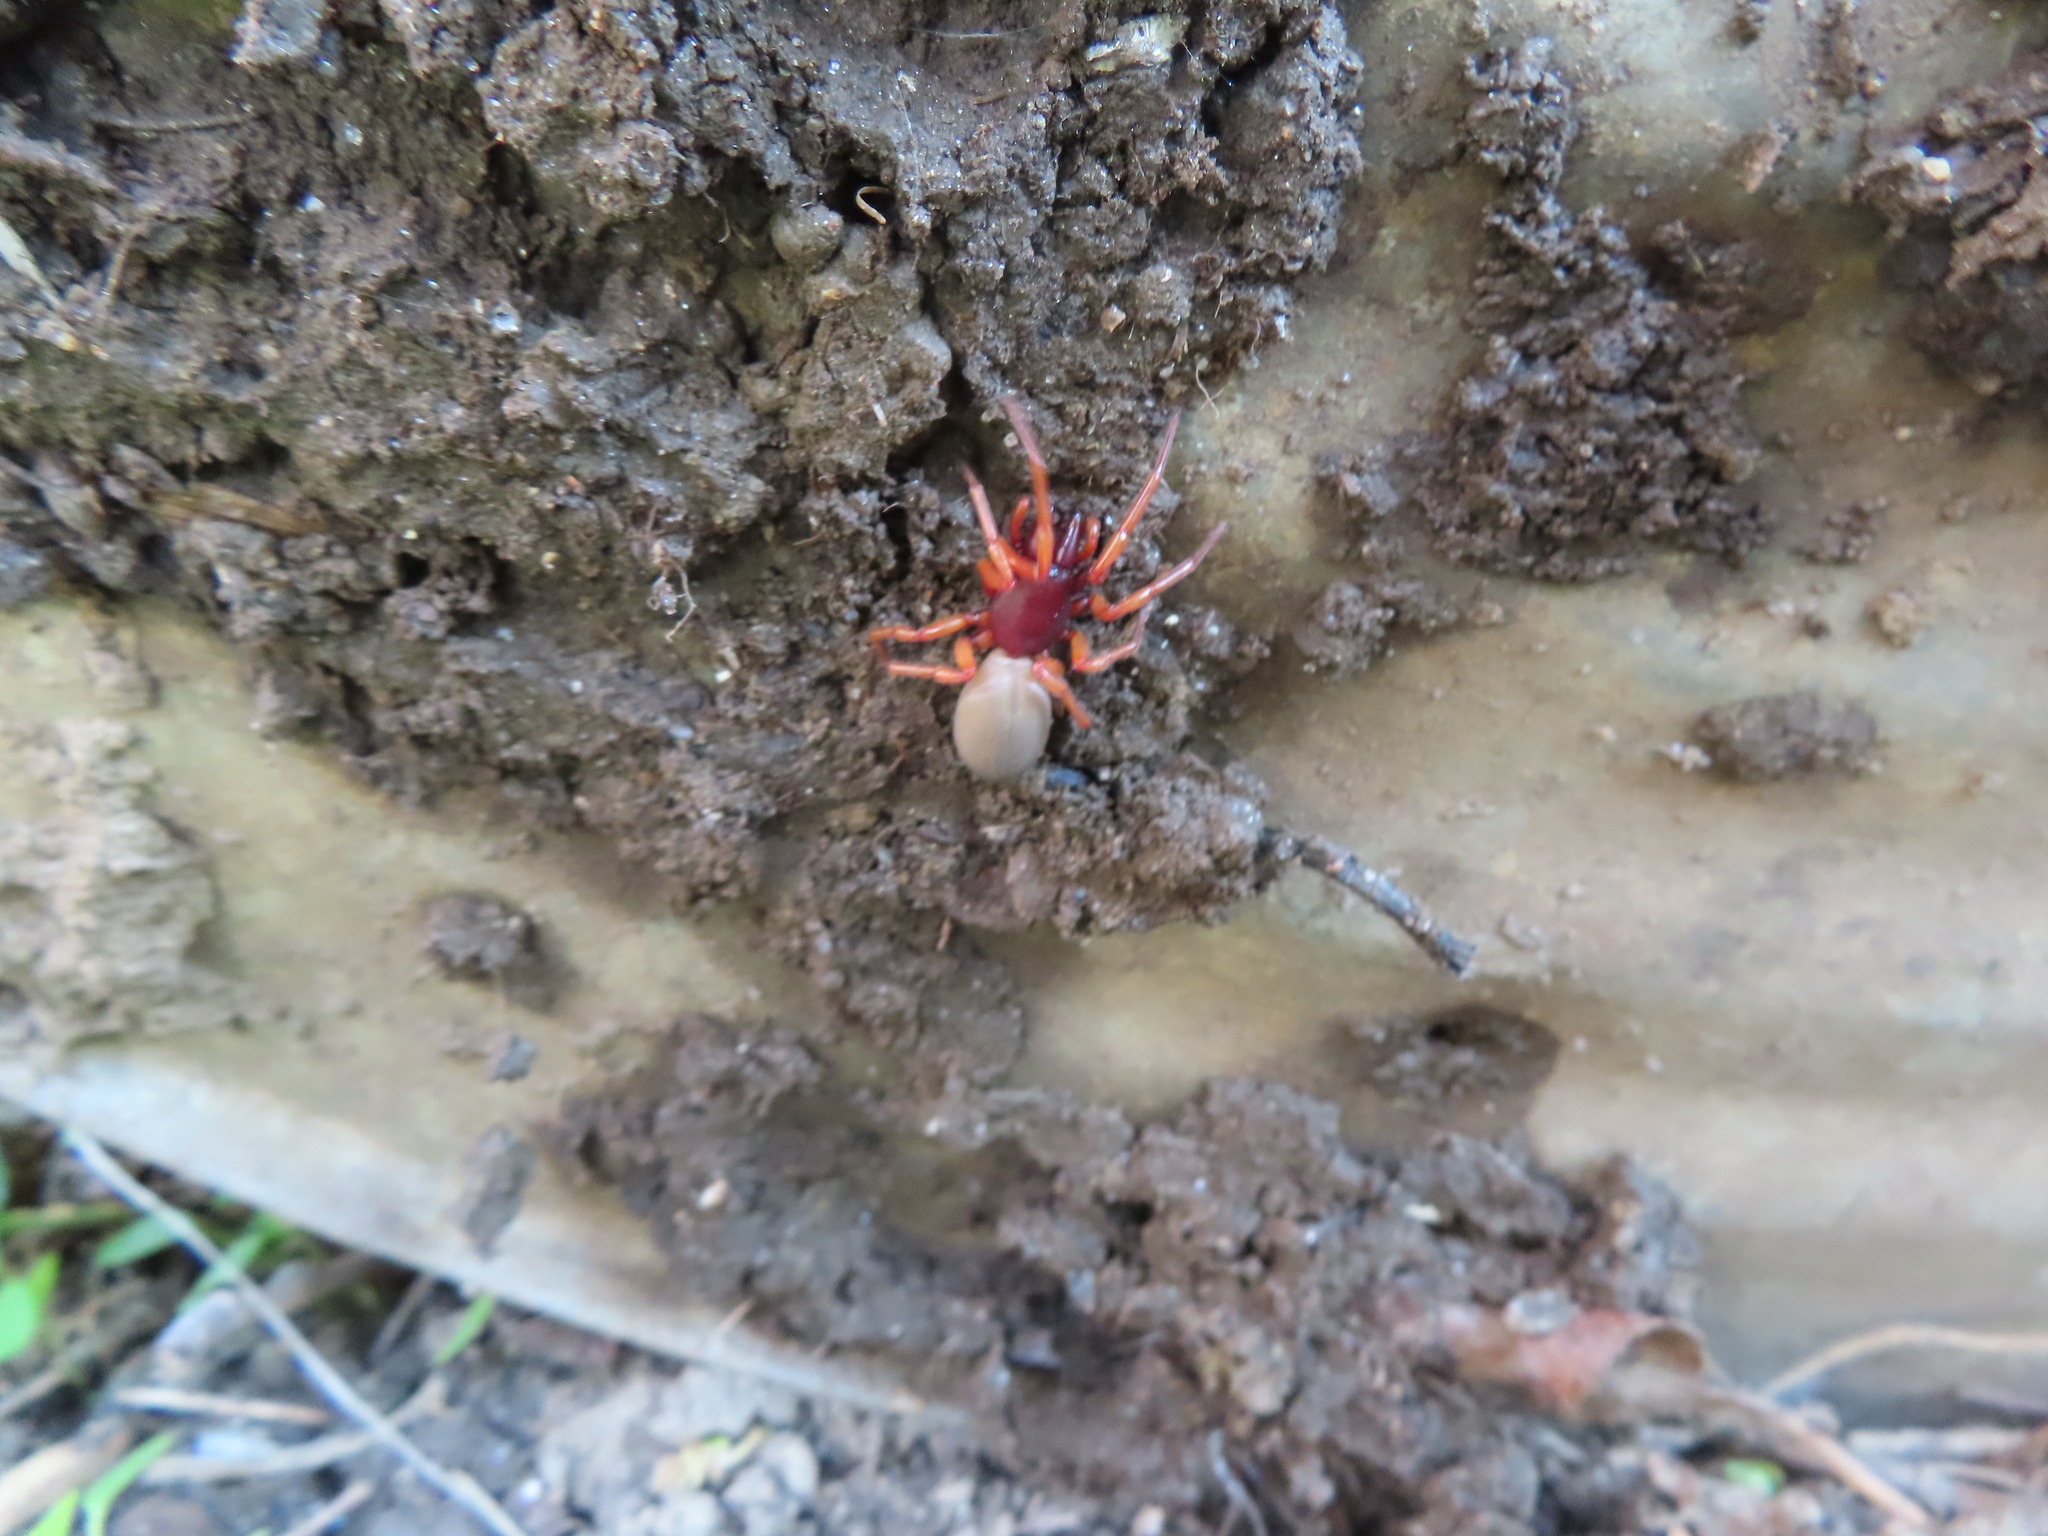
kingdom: Animalia
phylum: Arthropoda
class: Arachnida
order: Araneae
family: Dysderidae
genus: Dysdera
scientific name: Dysdera crocata
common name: Woodlouse spider
